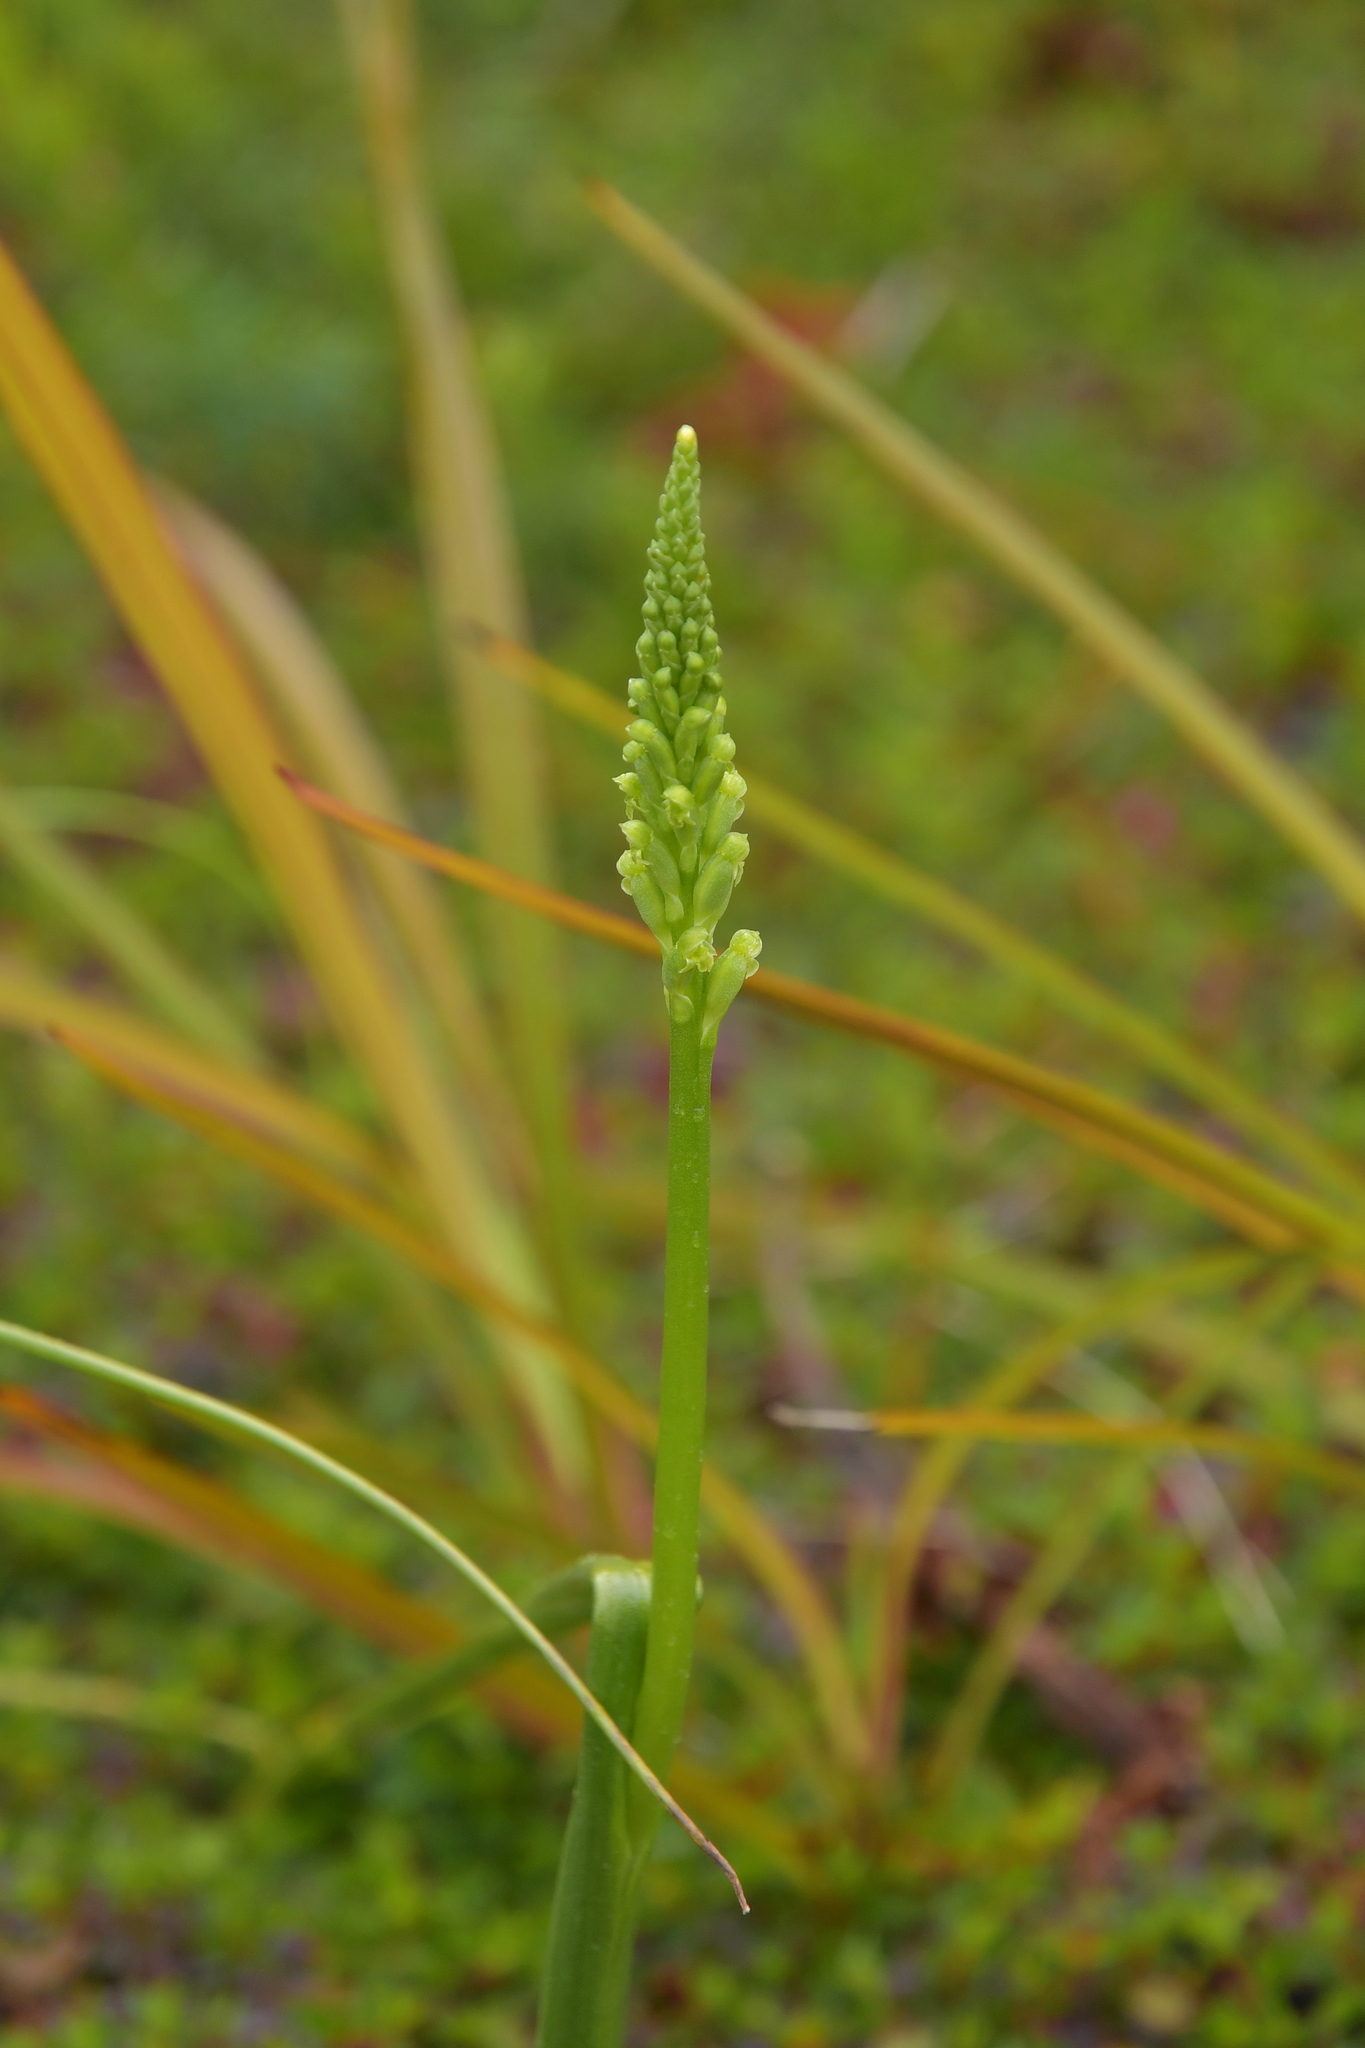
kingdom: Plantae
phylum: Tracheophyta
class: Liliopsida
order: Asparagales
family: Orchidaceae
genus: Microtis
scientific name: Microtis unifolia
